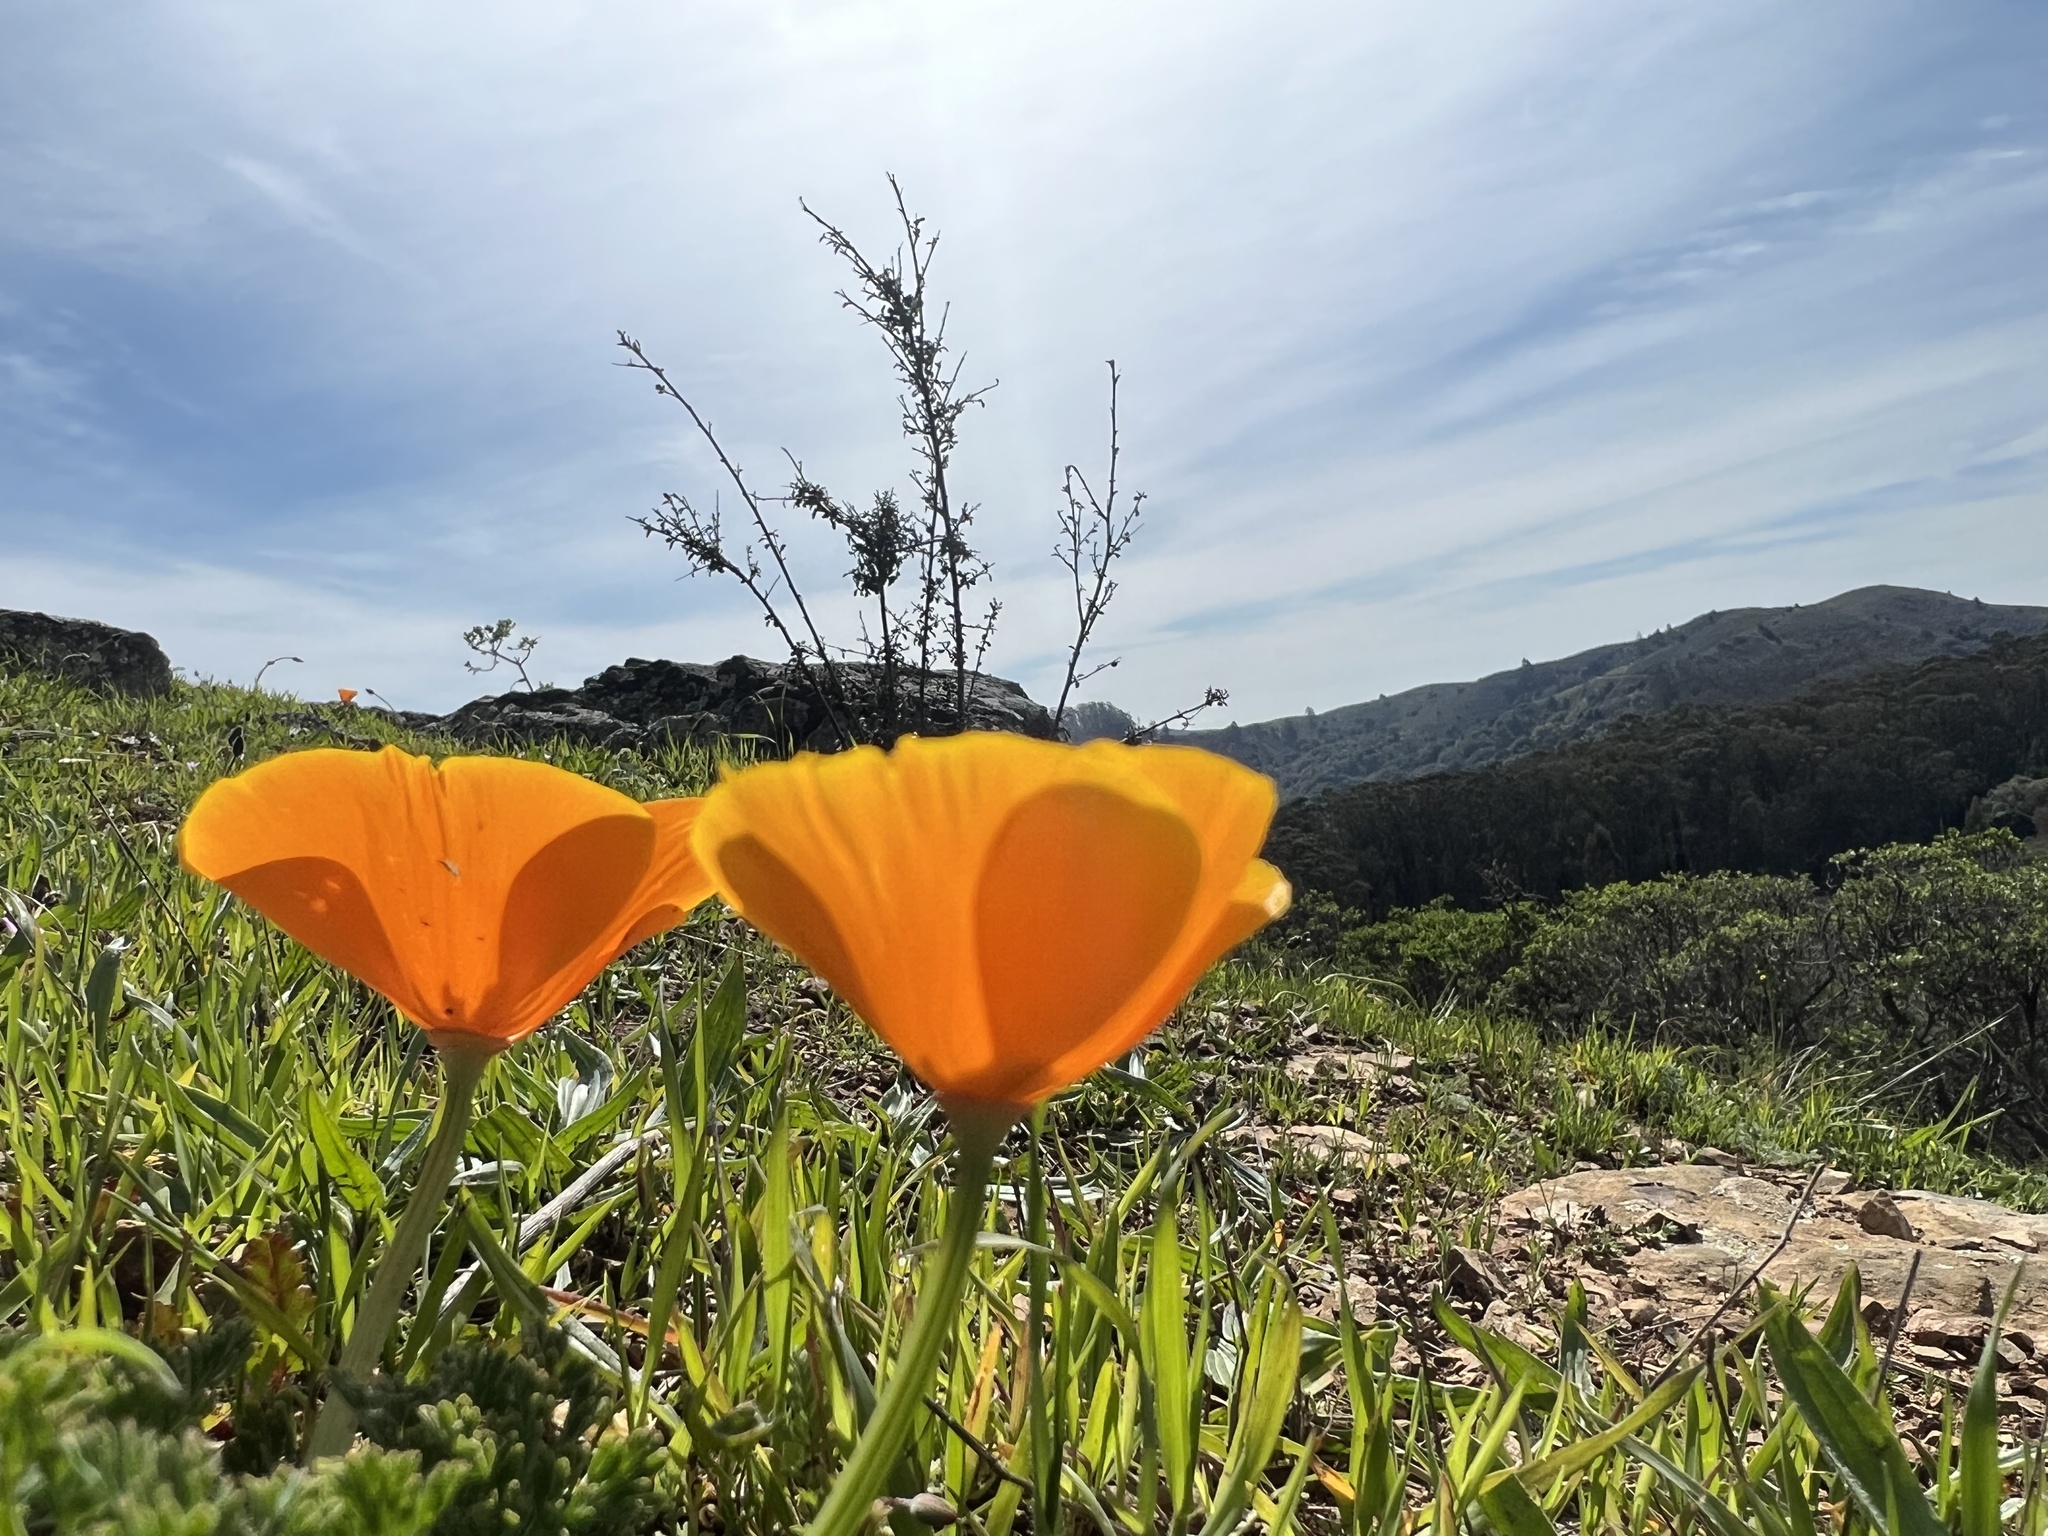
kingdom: Plantae
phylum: Tracheophyta
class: Magnoliopsida
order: Ranunculales
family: Papaveraceae
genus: Eschscholzia
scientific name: Eschscholzia californica
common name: California poppy
